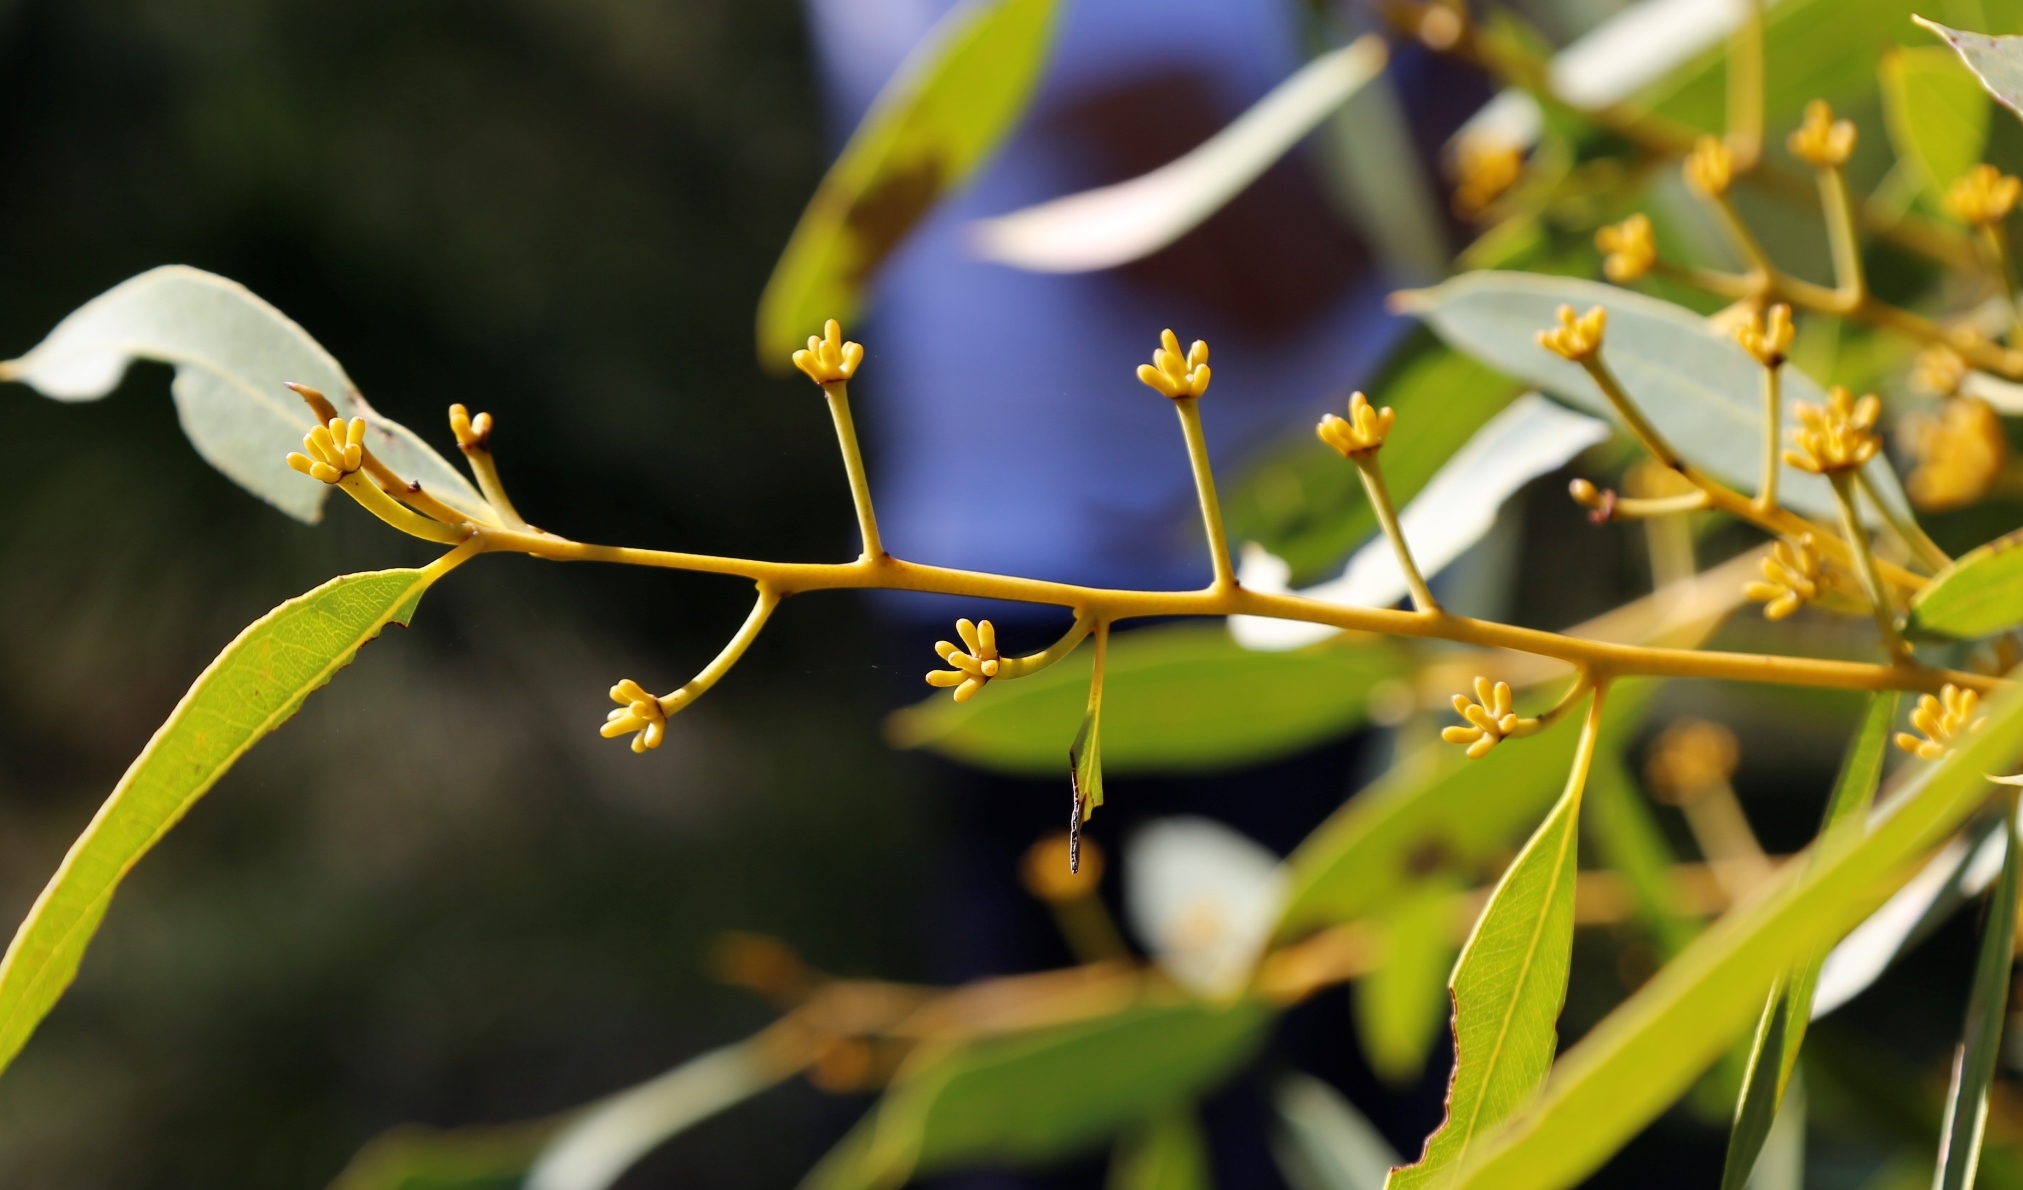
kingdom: Plantae
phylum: Tracheophyta
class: Magnoliopsida
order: Myrtales
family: Myrtaceae
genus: Eucalyptus
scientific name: Eucalyptus todtiana
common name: Coastal blackbutt
